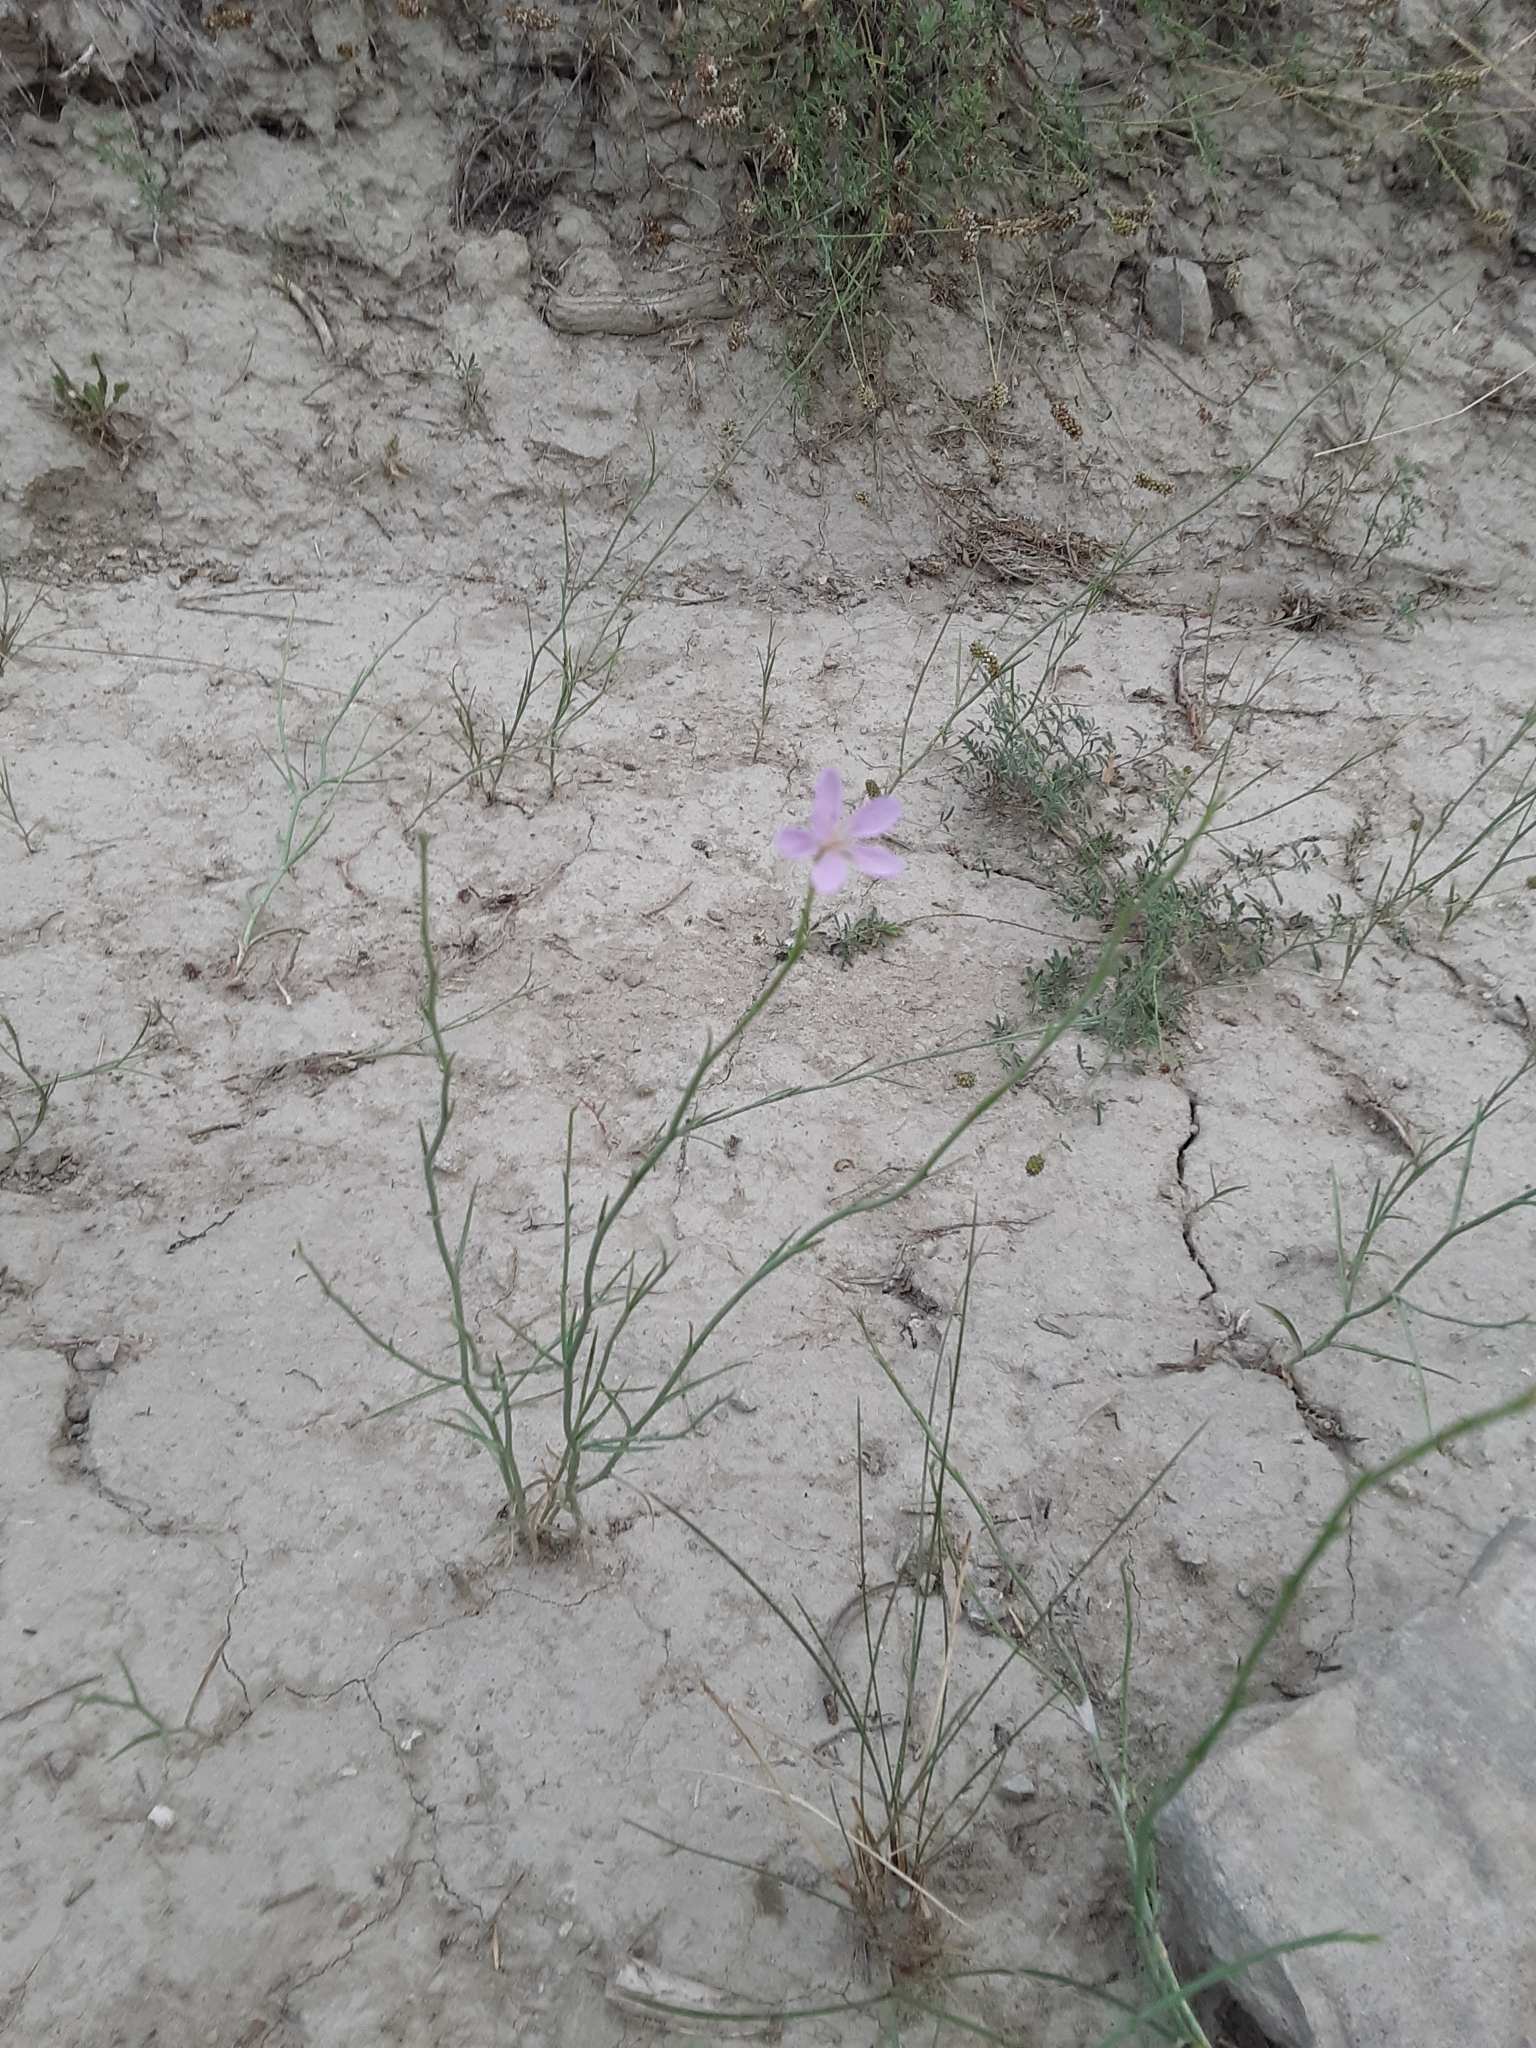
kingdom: Plantae
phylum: Tracheophyta
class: Magnoliopsida
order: Asterales
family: Asteraceae
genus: Lygodesmia
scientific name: Lygodesmia juncea
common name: Common skeletonweed
